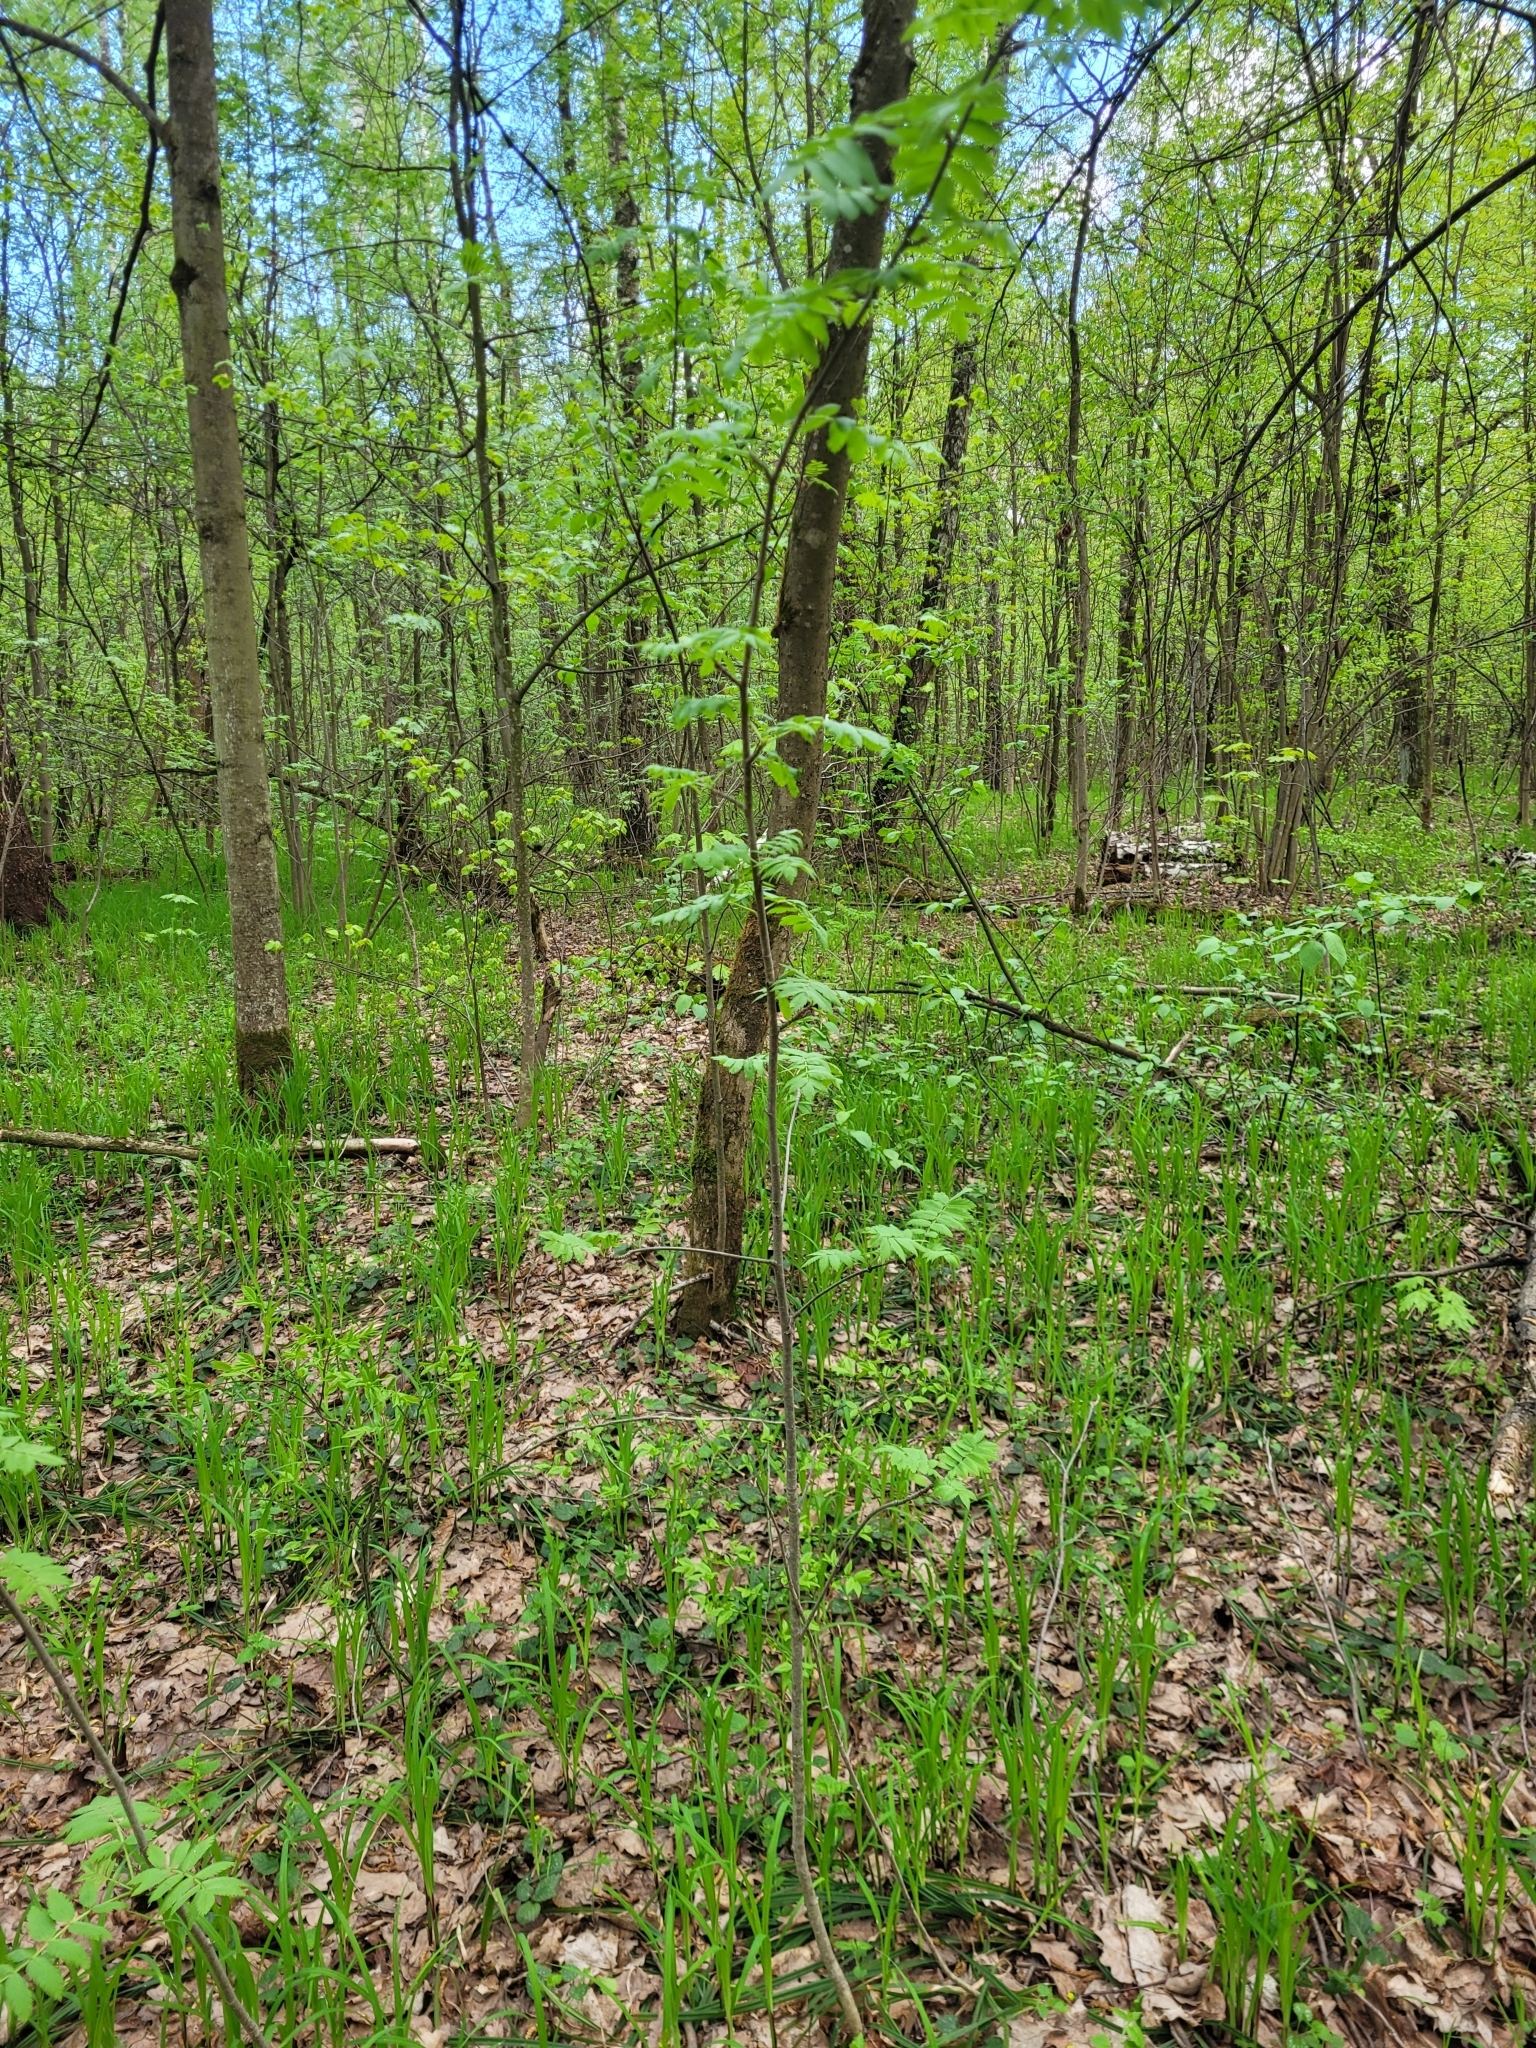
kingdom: Plantae
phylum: Tracheophyta
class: Magnoliopsida
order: Rosales
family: Rosaceae
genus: Sorbus
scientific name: Sorbus aucuparia
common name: Rowan
